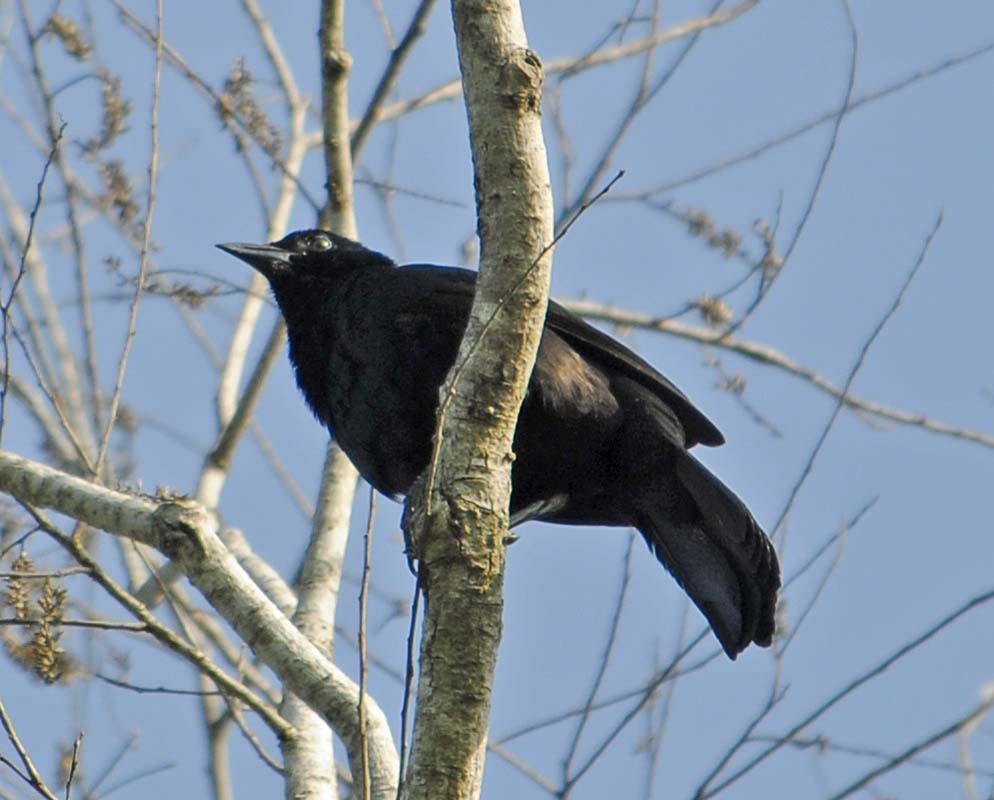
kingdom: Animalia
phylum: Chordata
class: Aves
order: Passeriformes
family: Icteridae
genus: Dives
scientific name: Dives dives
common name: Melodious blackbird
